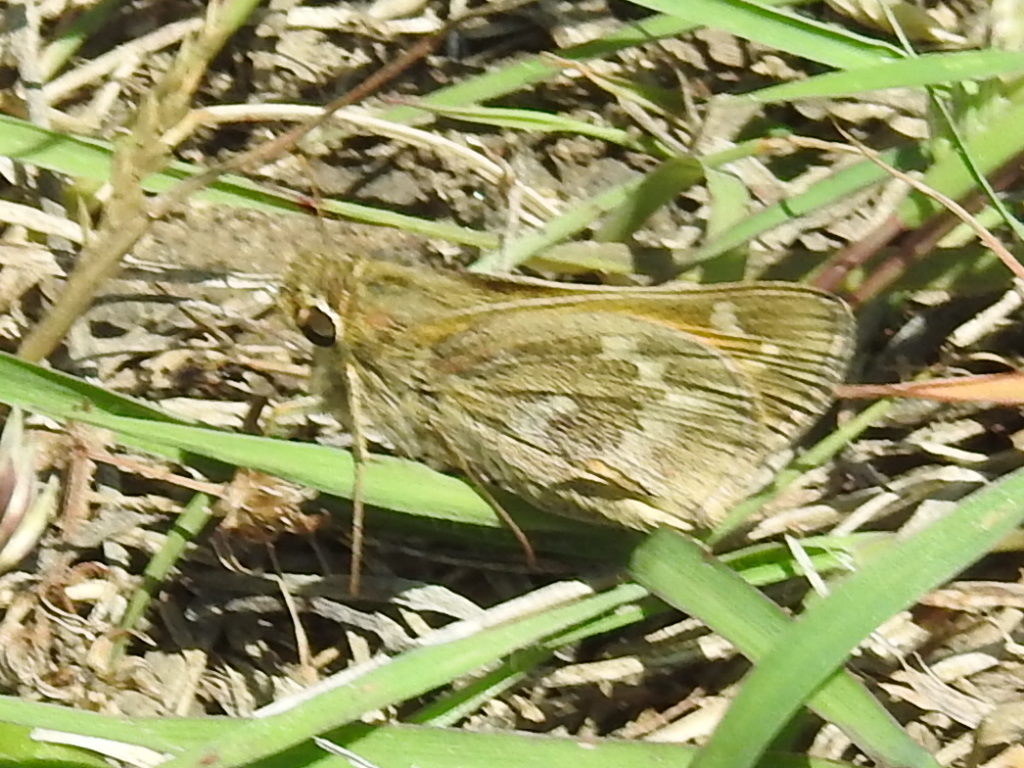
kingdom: Animalia
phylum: Arthropoda
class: Insecta
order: Lepidoptera
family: Hesperiidae
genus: Atalopedes
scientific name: Atalopedes
